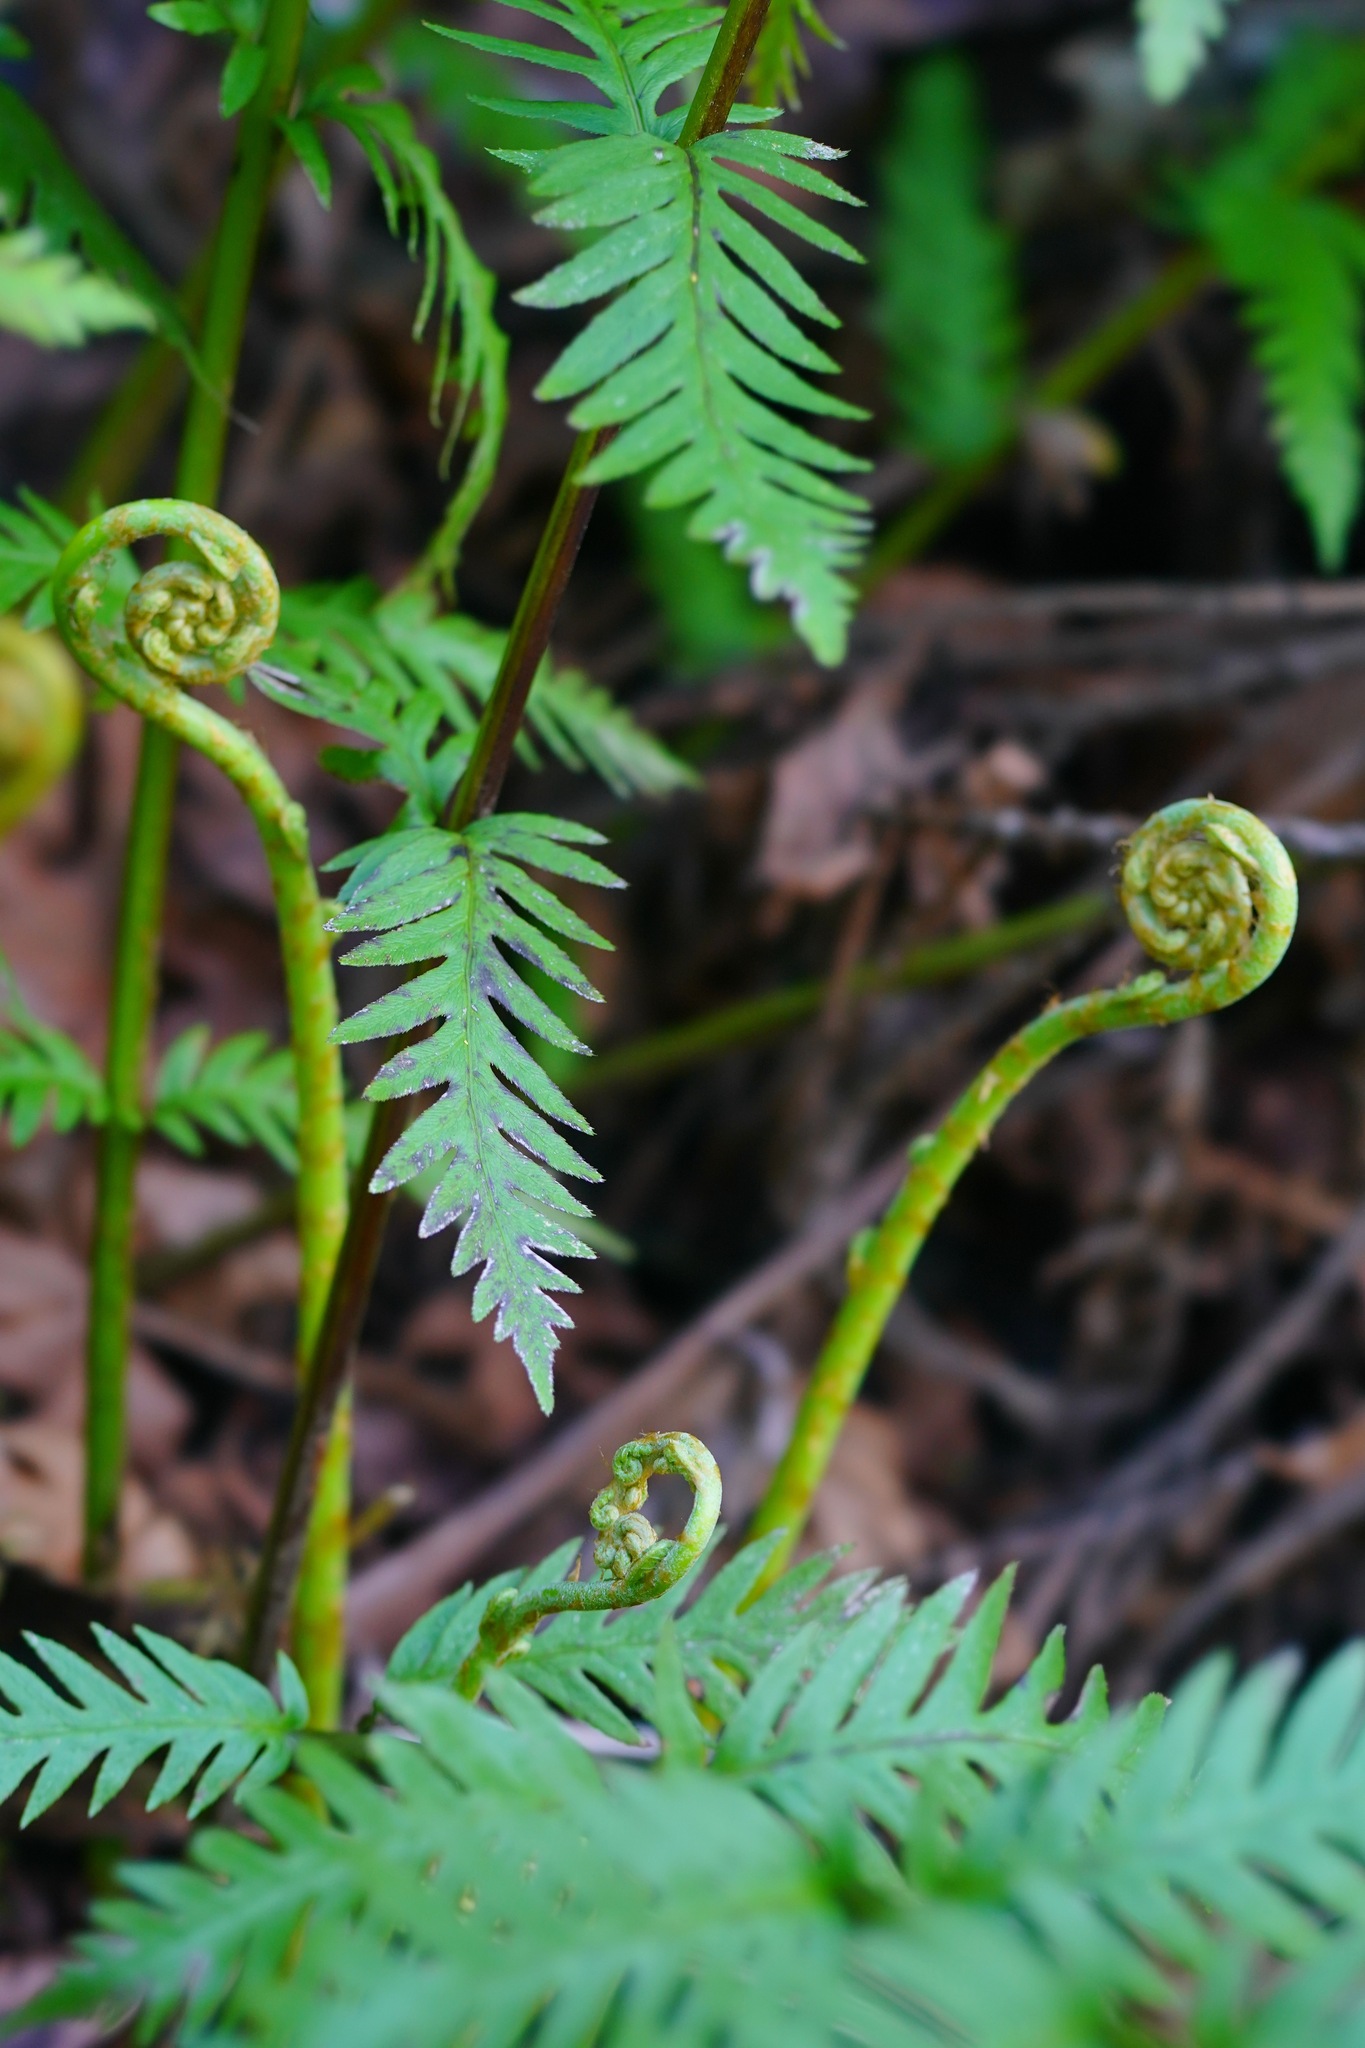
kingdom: Plantae
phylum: Tracheophyta
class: Polypodiopsida
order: Polypodiales
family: Blechnaceae
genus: Woodwardia
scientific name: Woodwardia fimbriata
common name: Giant chain fern
